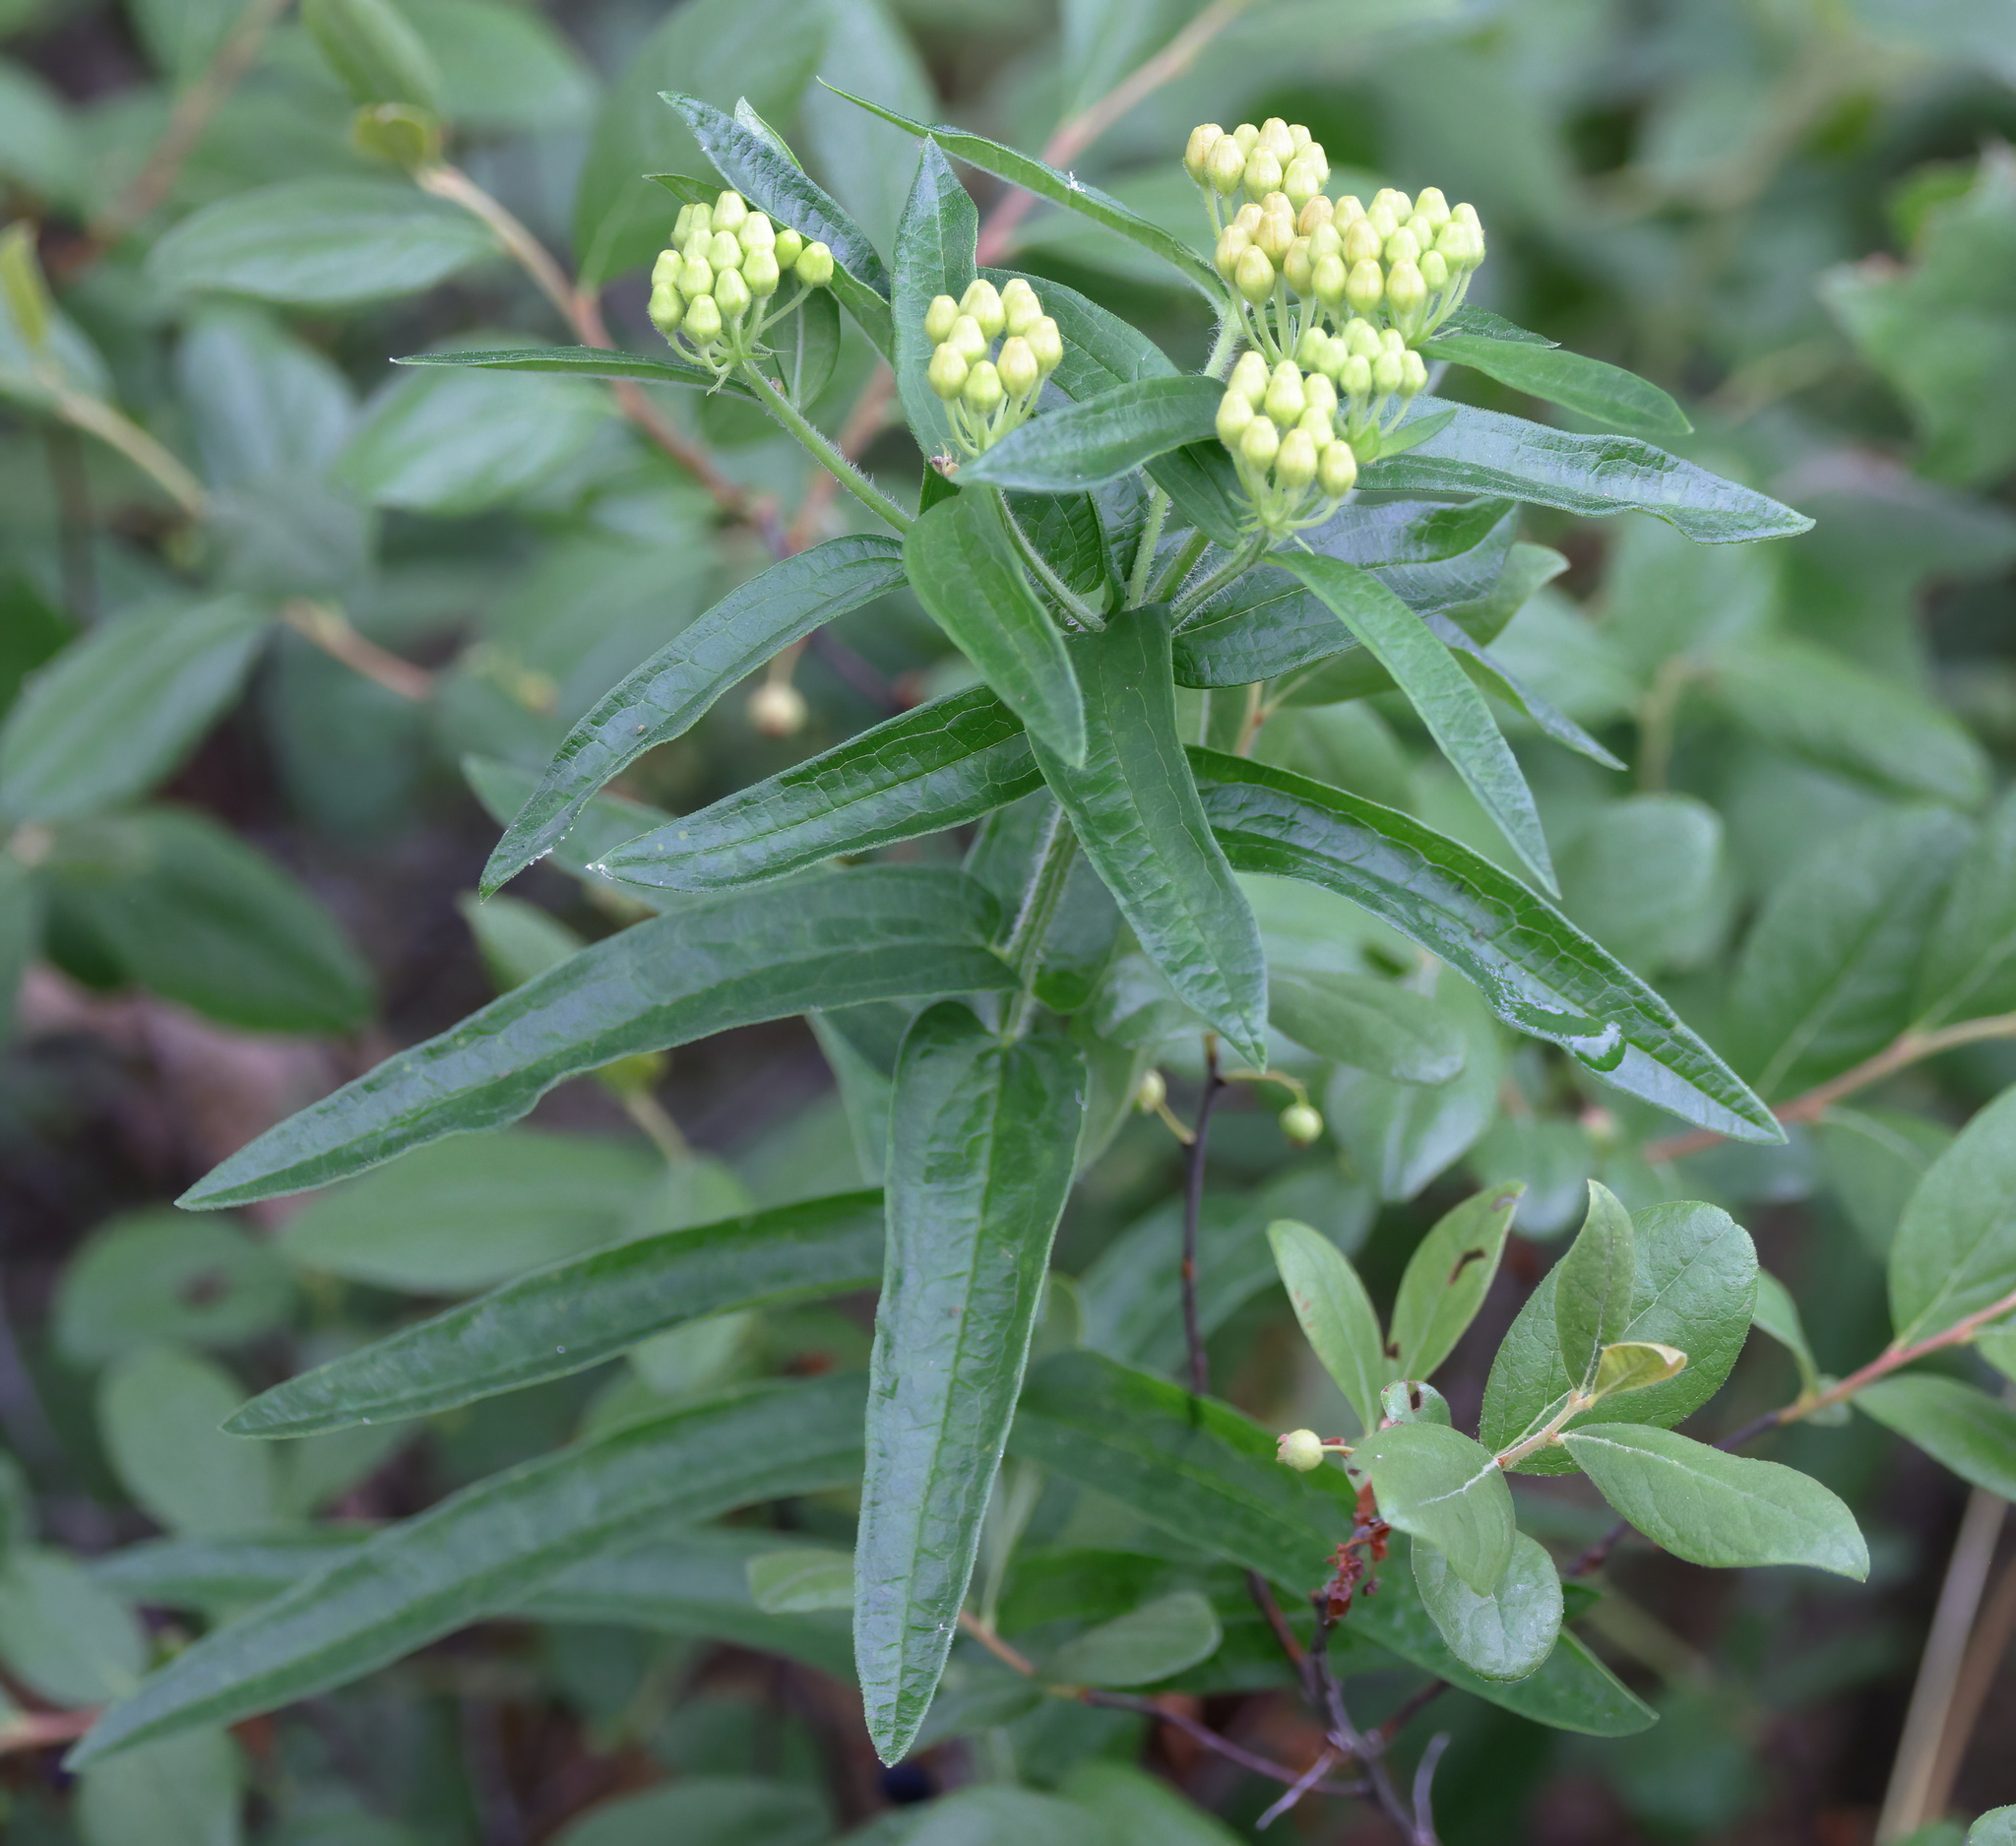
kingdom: Plantae
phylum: Tracheophyta
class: Magnoliopsida
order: Gentianales
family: Apocynaceae
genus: Asclepias
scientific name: Asclepias tuberosa
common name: Butterfly milkweed
